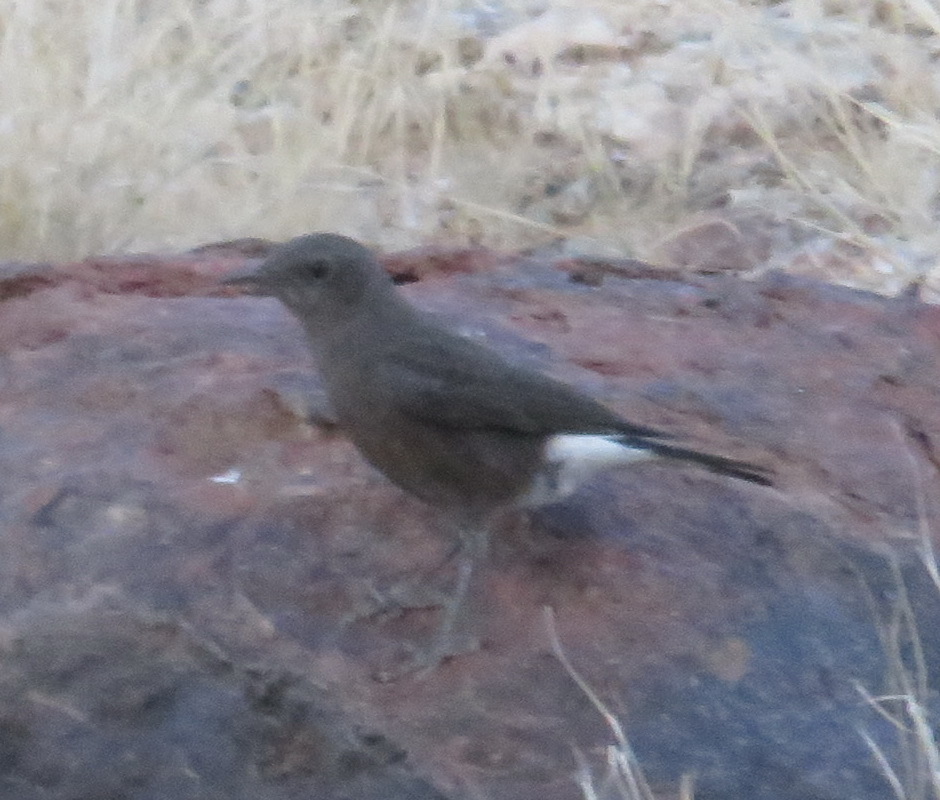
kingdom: Animalia
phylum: Chordata
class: Aves
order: Passeriformes
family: Muscicapidae
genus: Oenanthe
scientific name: Oenanthe monticola
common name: Mountain wheatear
